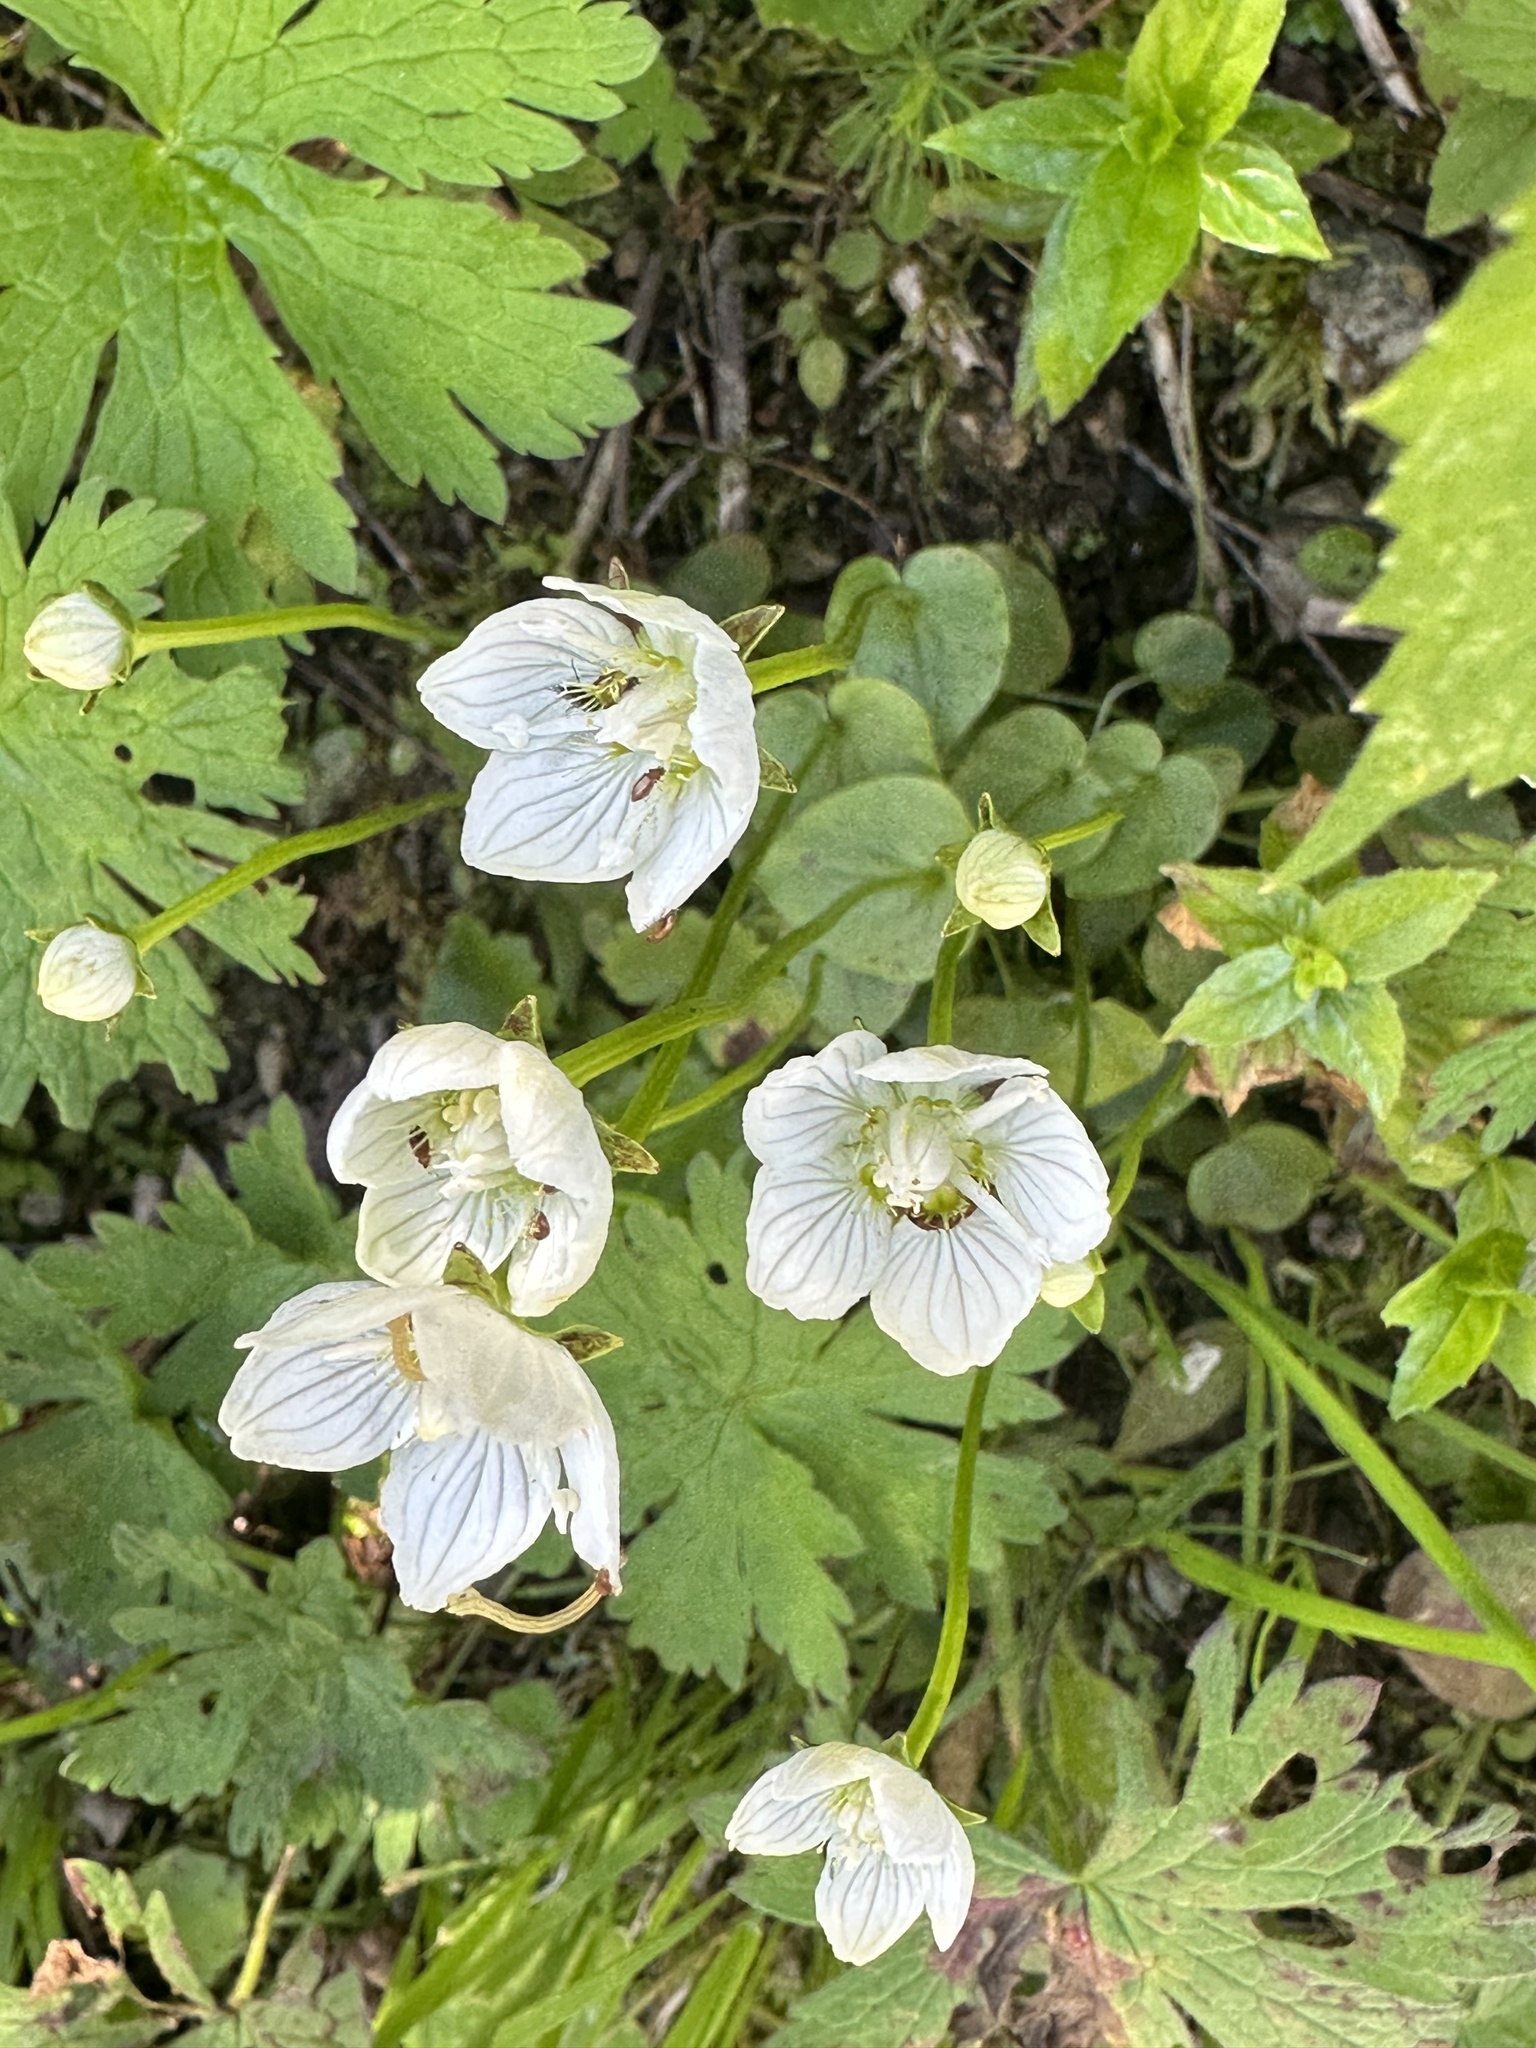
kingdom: Plantae
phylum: Tracheophyta
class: Magnoliopsida
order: Celastrales
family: Parnassiaceae
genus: Parnassia
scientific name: Parnassia palustris
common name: Grass-of-parnassus
